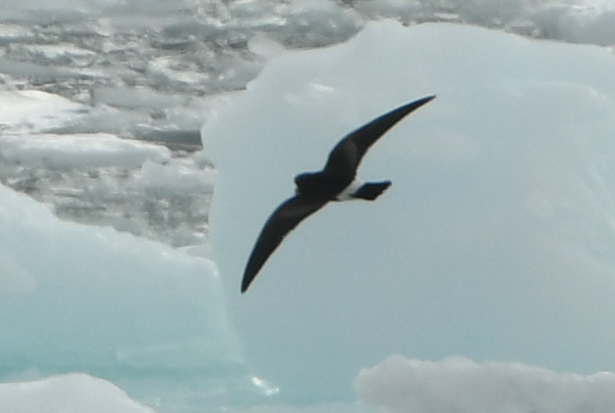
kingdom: Animalia
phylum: Chordata
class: Aves
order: Procellariiformes
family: Hydrobatidae
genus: Oceanites
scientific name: Oceanites oceanicus
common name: Wilson's storm petrel
